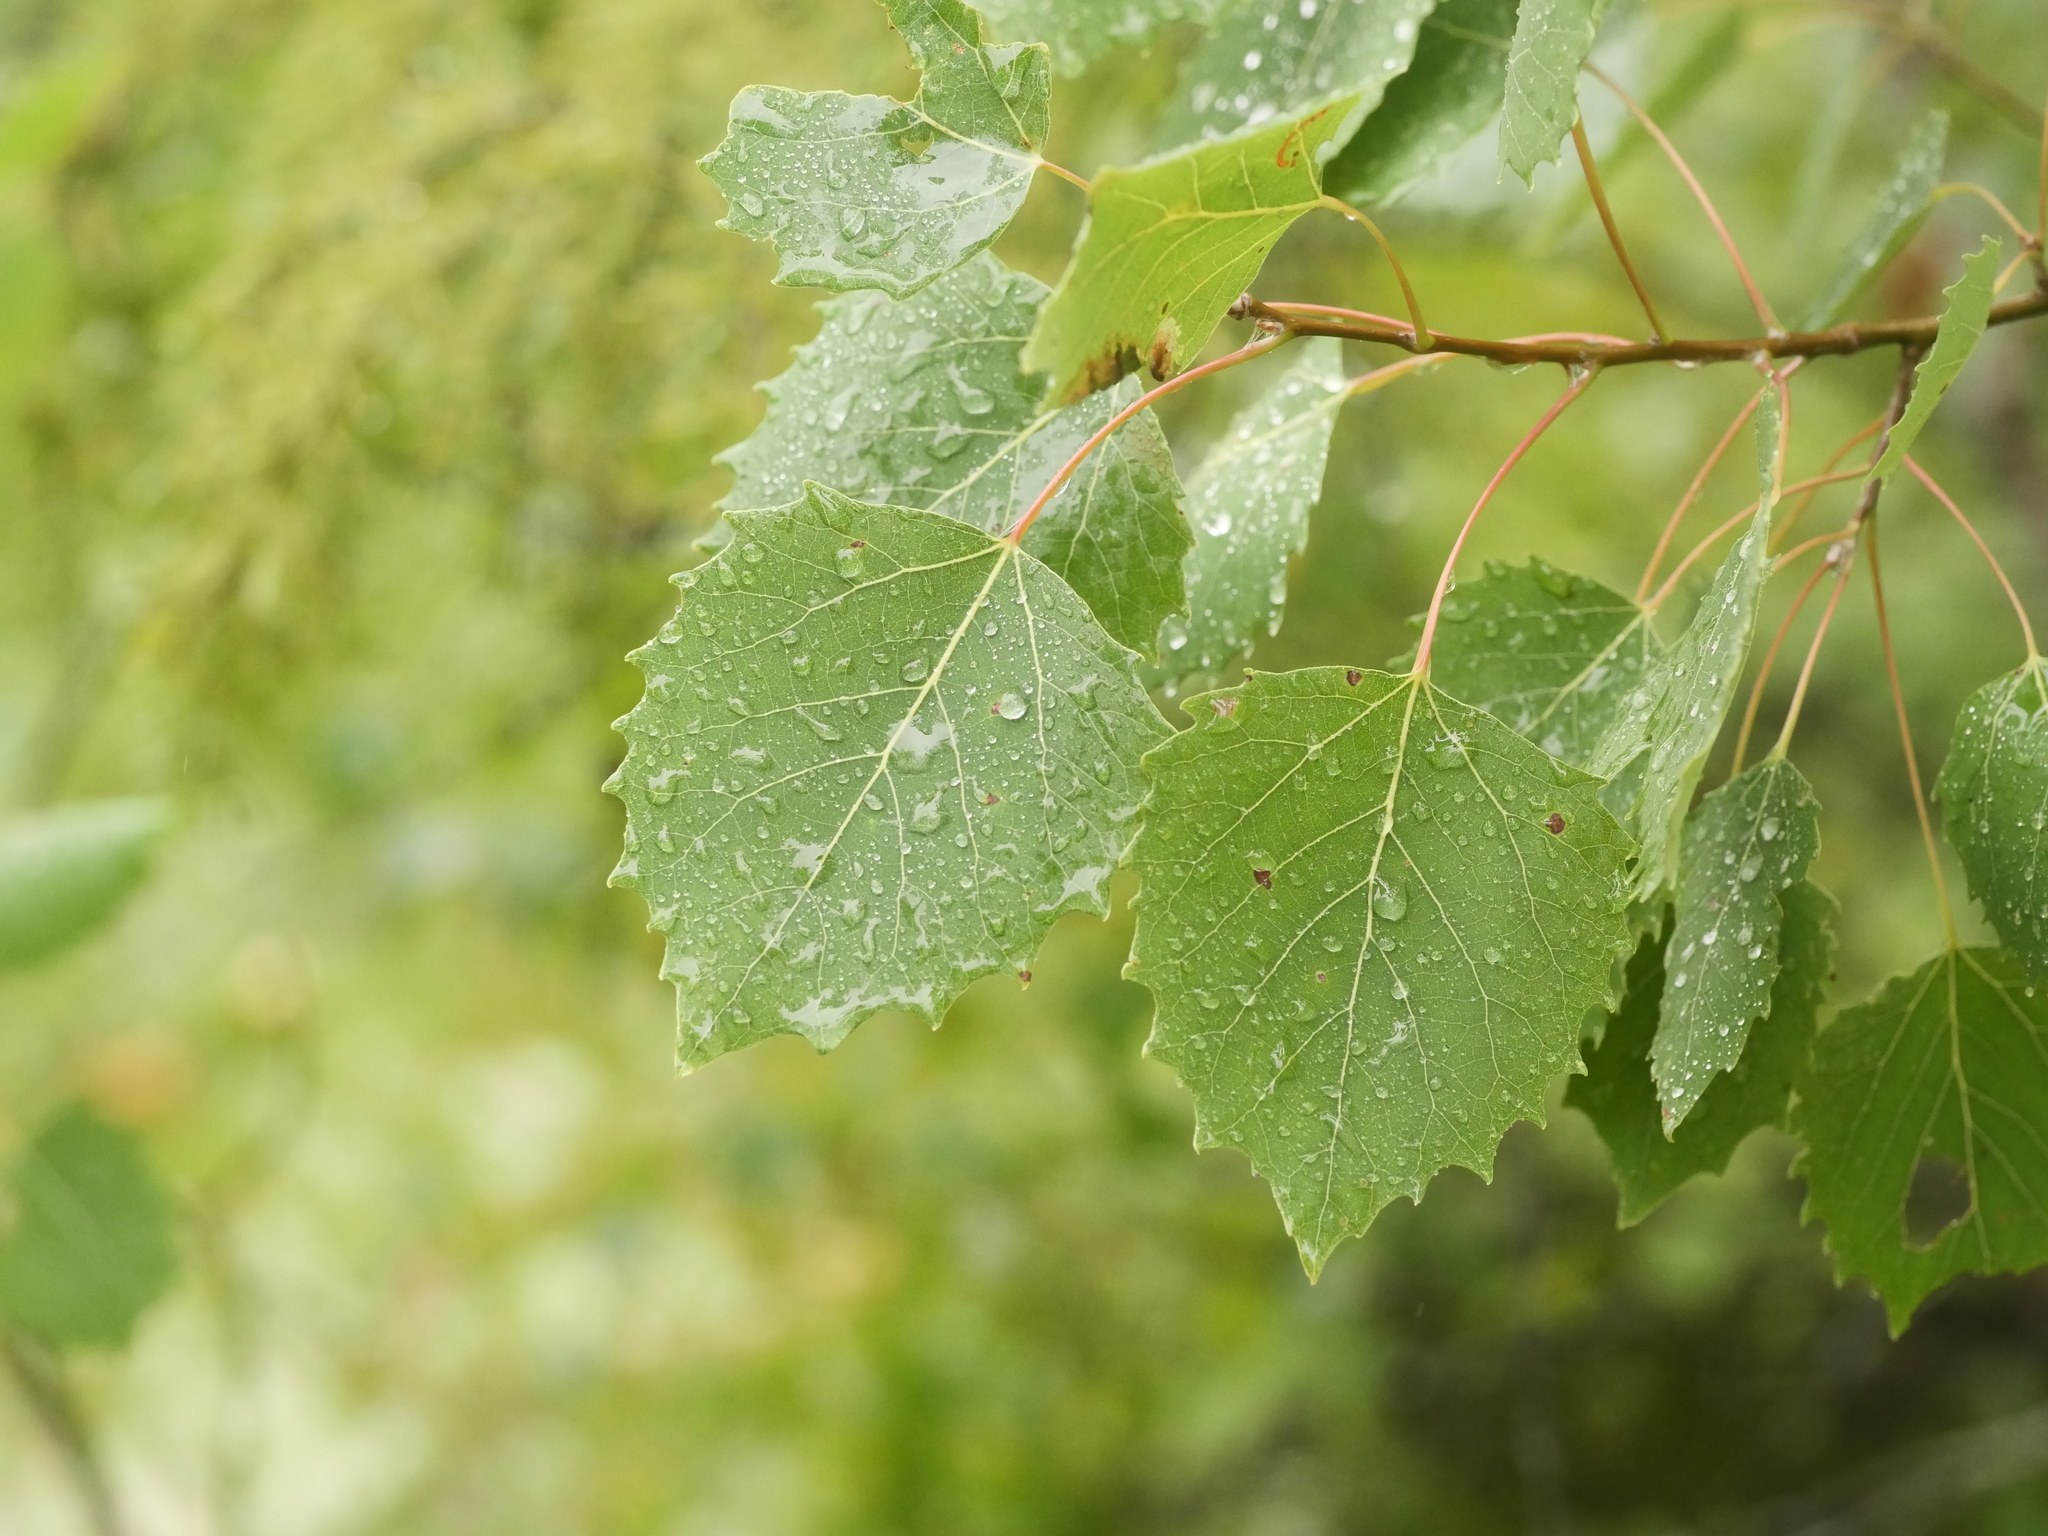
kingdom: Plantae
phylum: Tracheophyta
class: Magnoliopsida
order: Malpighiales
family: Salicaceae
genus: Populus
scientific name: Populus grandidentata
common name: Bigtooth aspen
